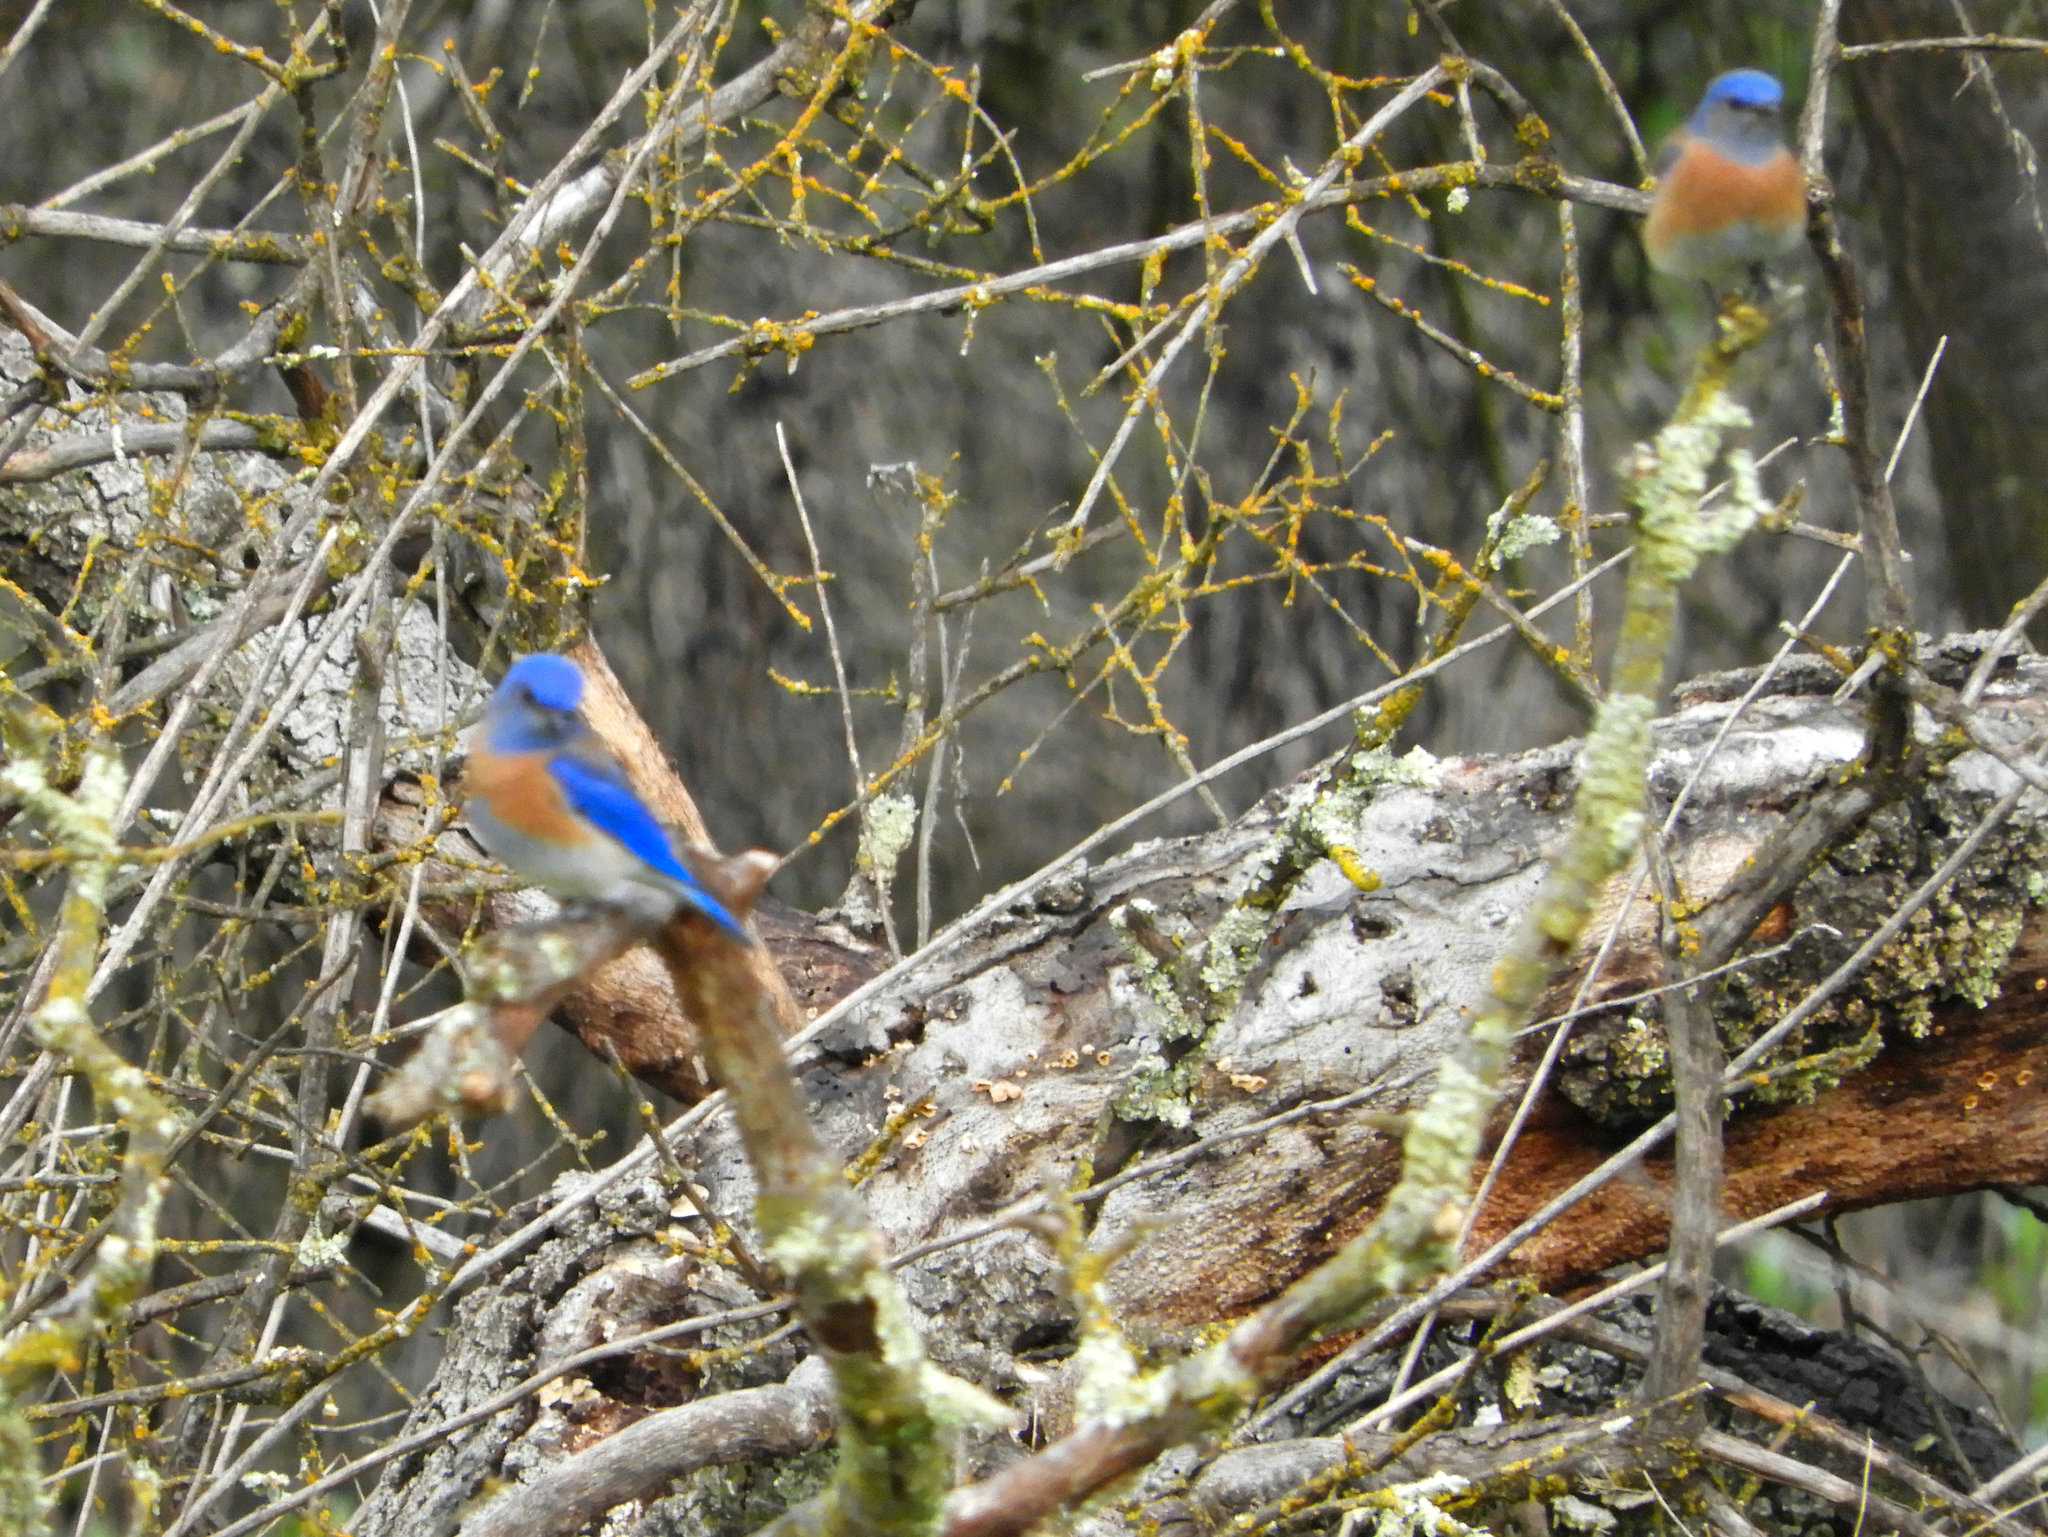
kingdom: Animalia
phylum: Chordata
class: Aves
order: Passeriformes
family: Turdidae
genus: Sialia
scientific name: Sialia mexicana
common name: Western bluebird
